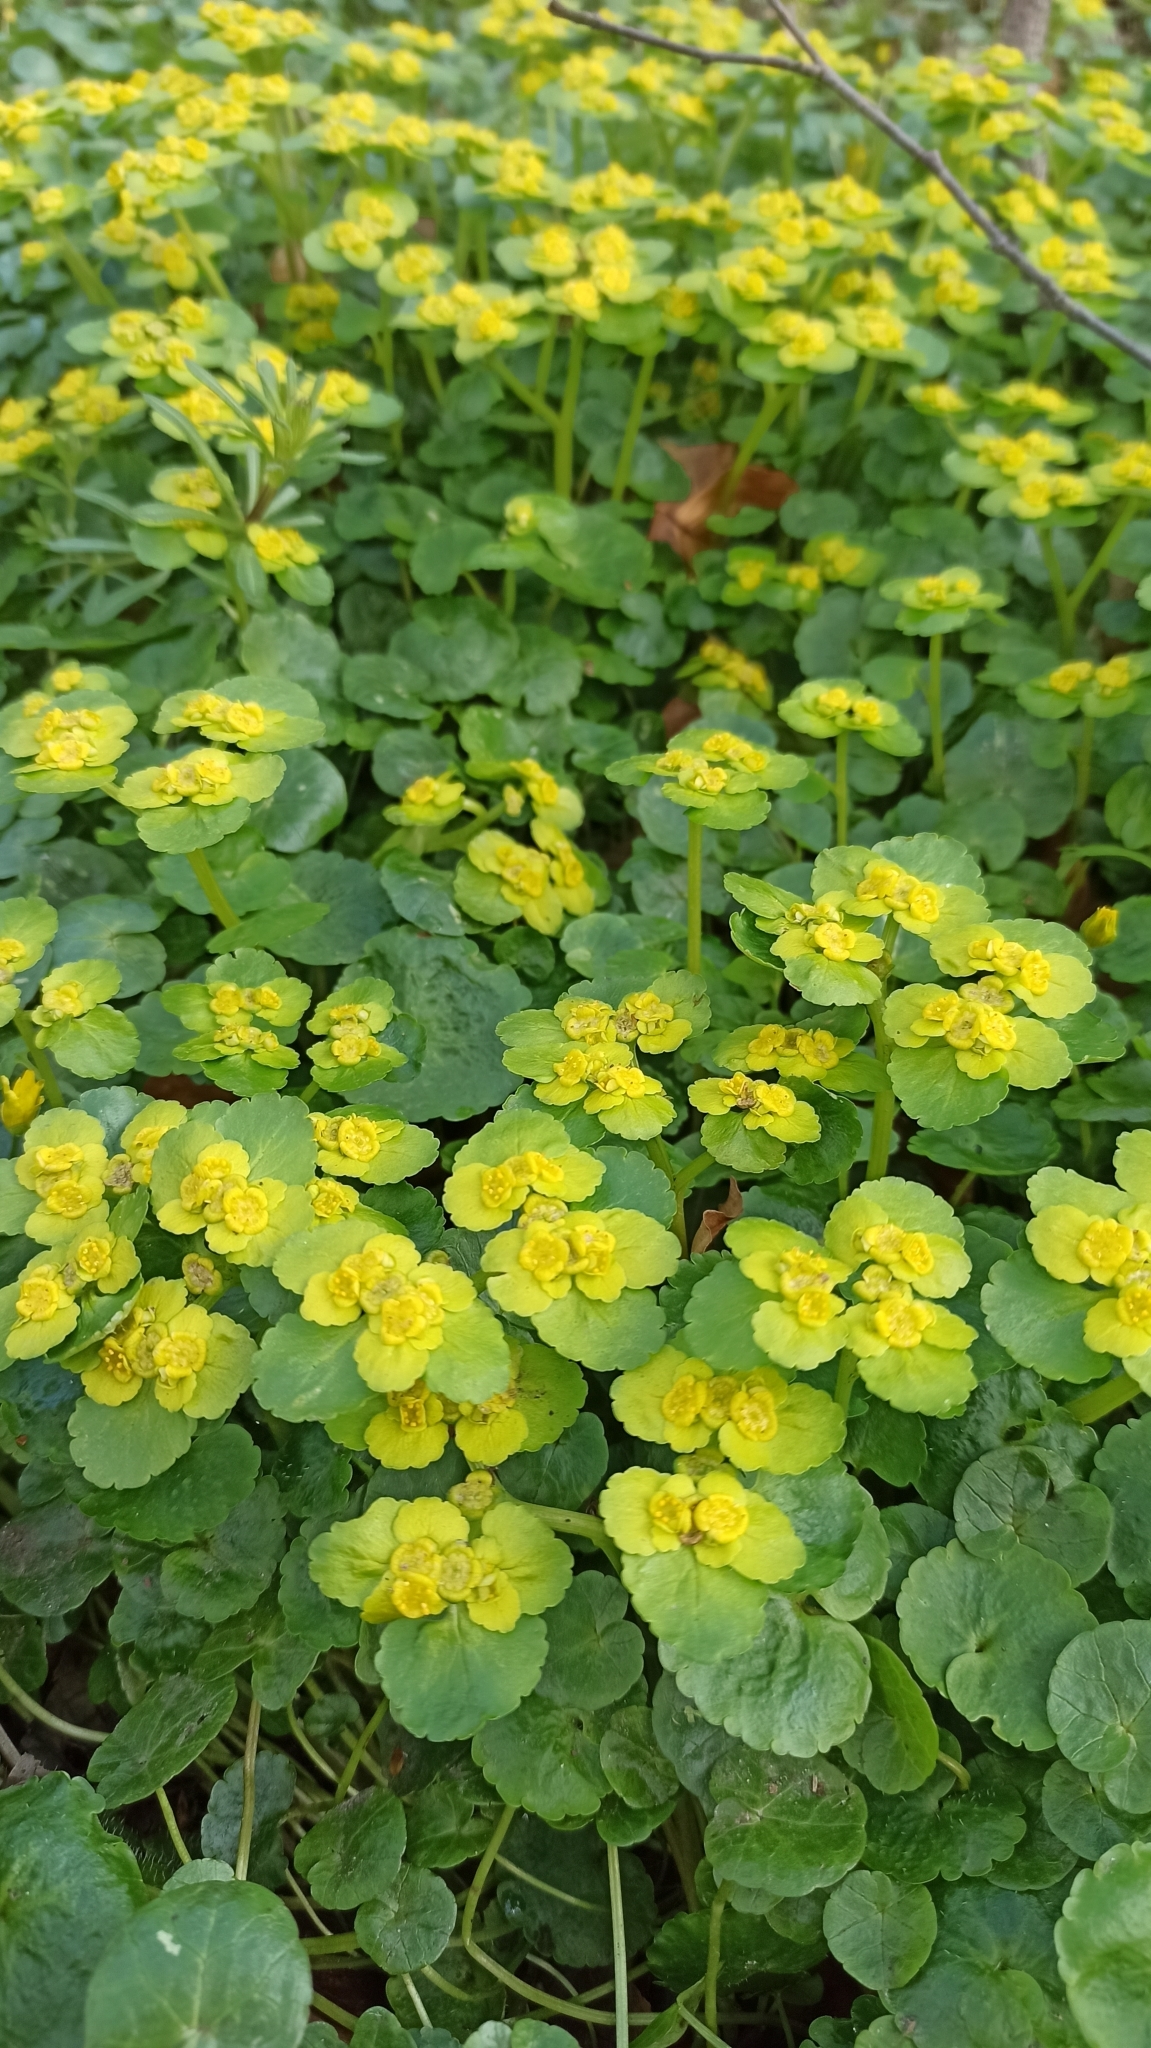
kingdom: Plantae
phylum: Tracheophyta
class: Magnoliopsida
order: Saxifragales
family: Saxifragaceae
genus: Chrysosplenium
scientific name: Chrysosplenium alternifolium
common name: Alternate-leaved golden-saxifrage
